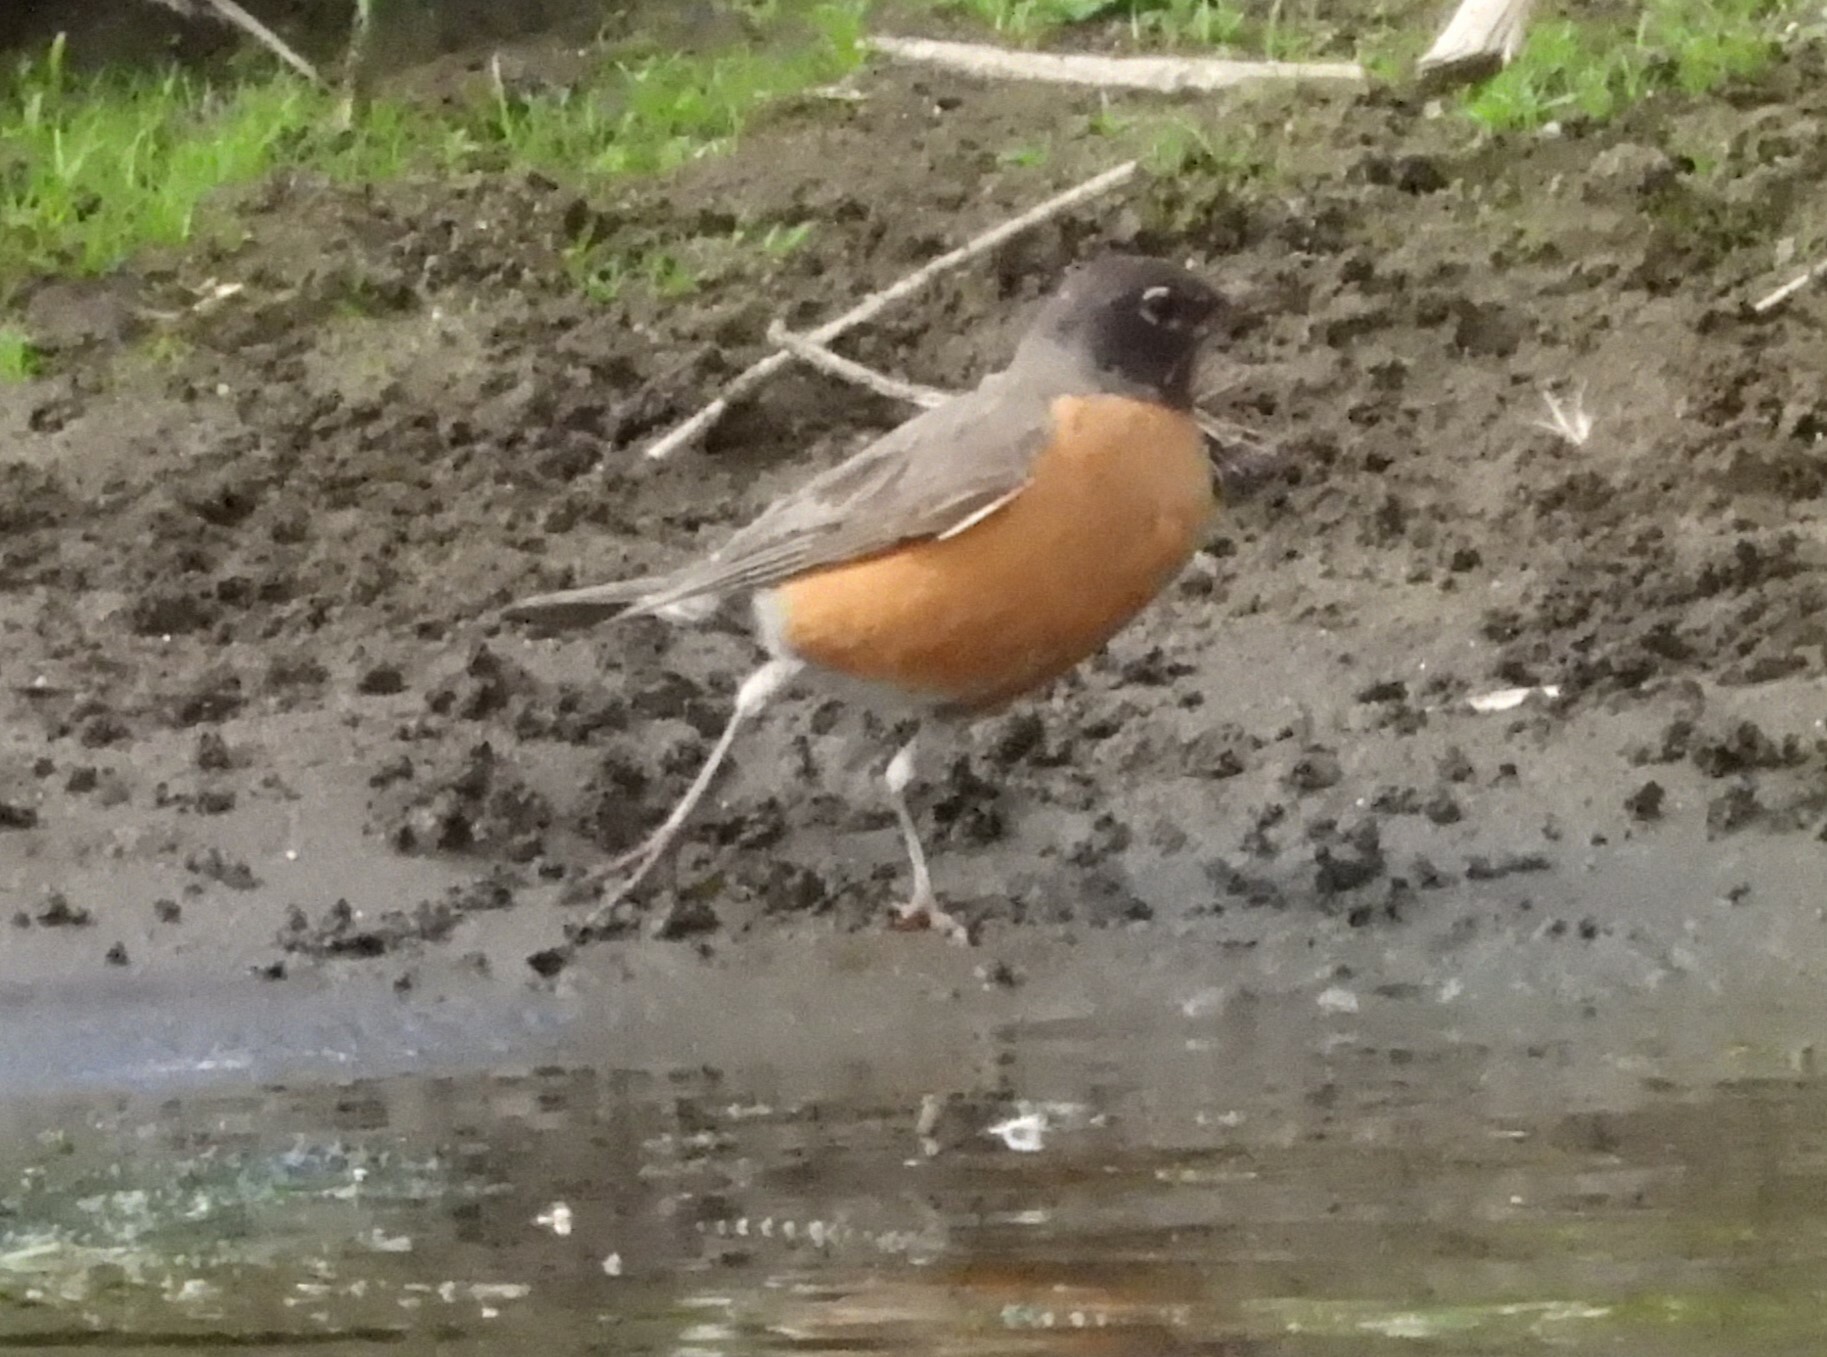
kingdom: Animalia
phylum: Chordata
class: Aves
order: Passeriformes
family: Turdidae
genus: Turdus
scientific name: Turdus migratorius
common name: American robin
